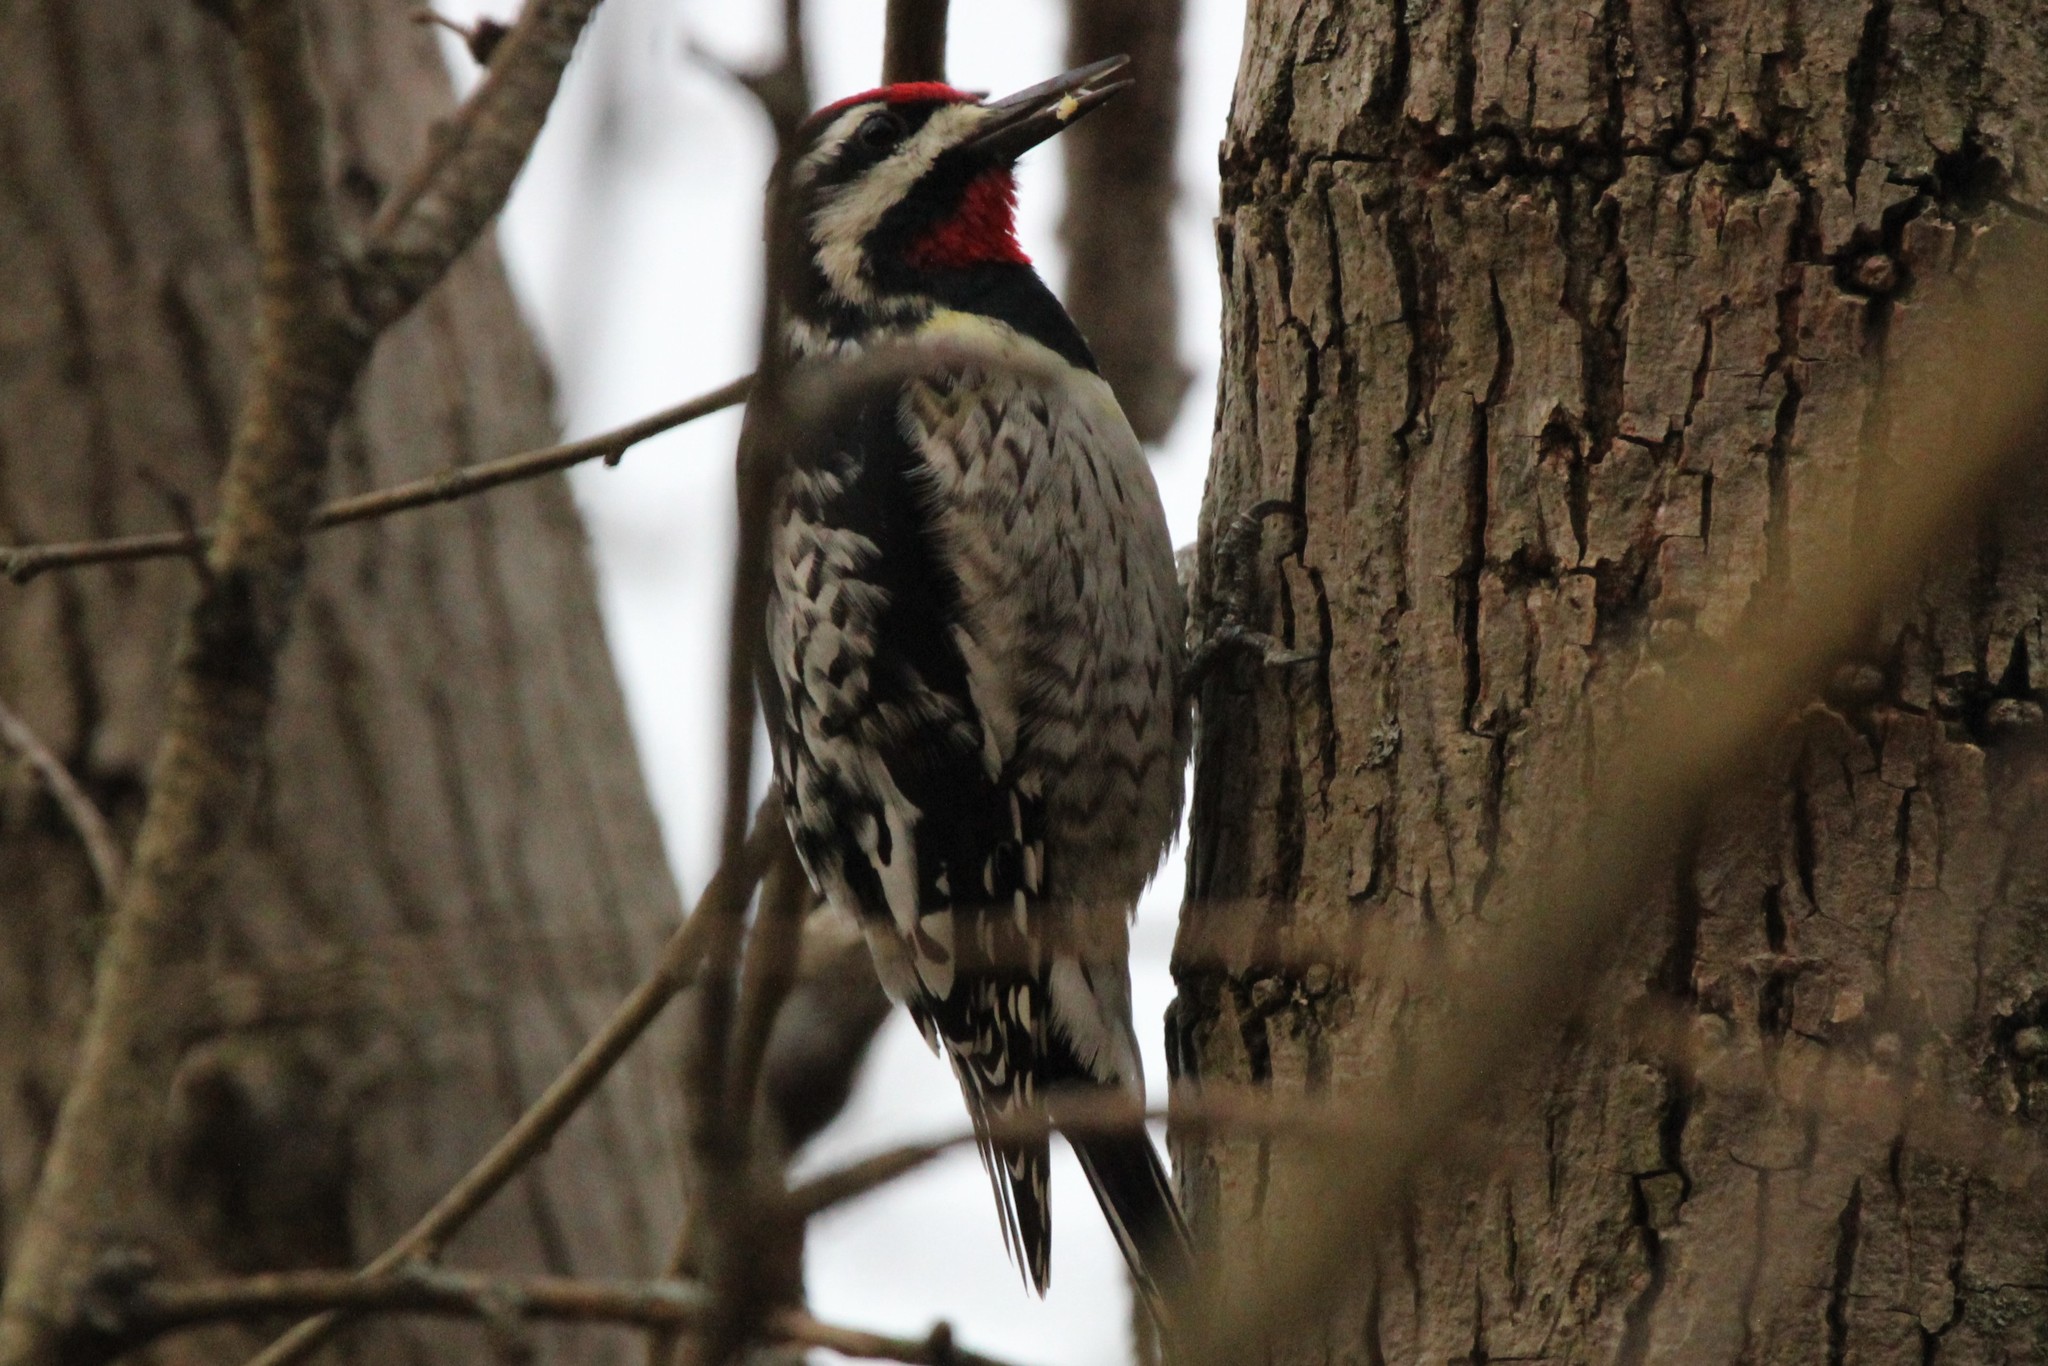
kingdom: Animalia
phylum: Chordata
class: Aves
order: Piciformes
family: Picidae
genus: Sphyrapicus
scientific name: Sphyrapicus varius
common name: Yellow-bellied sapsucker
